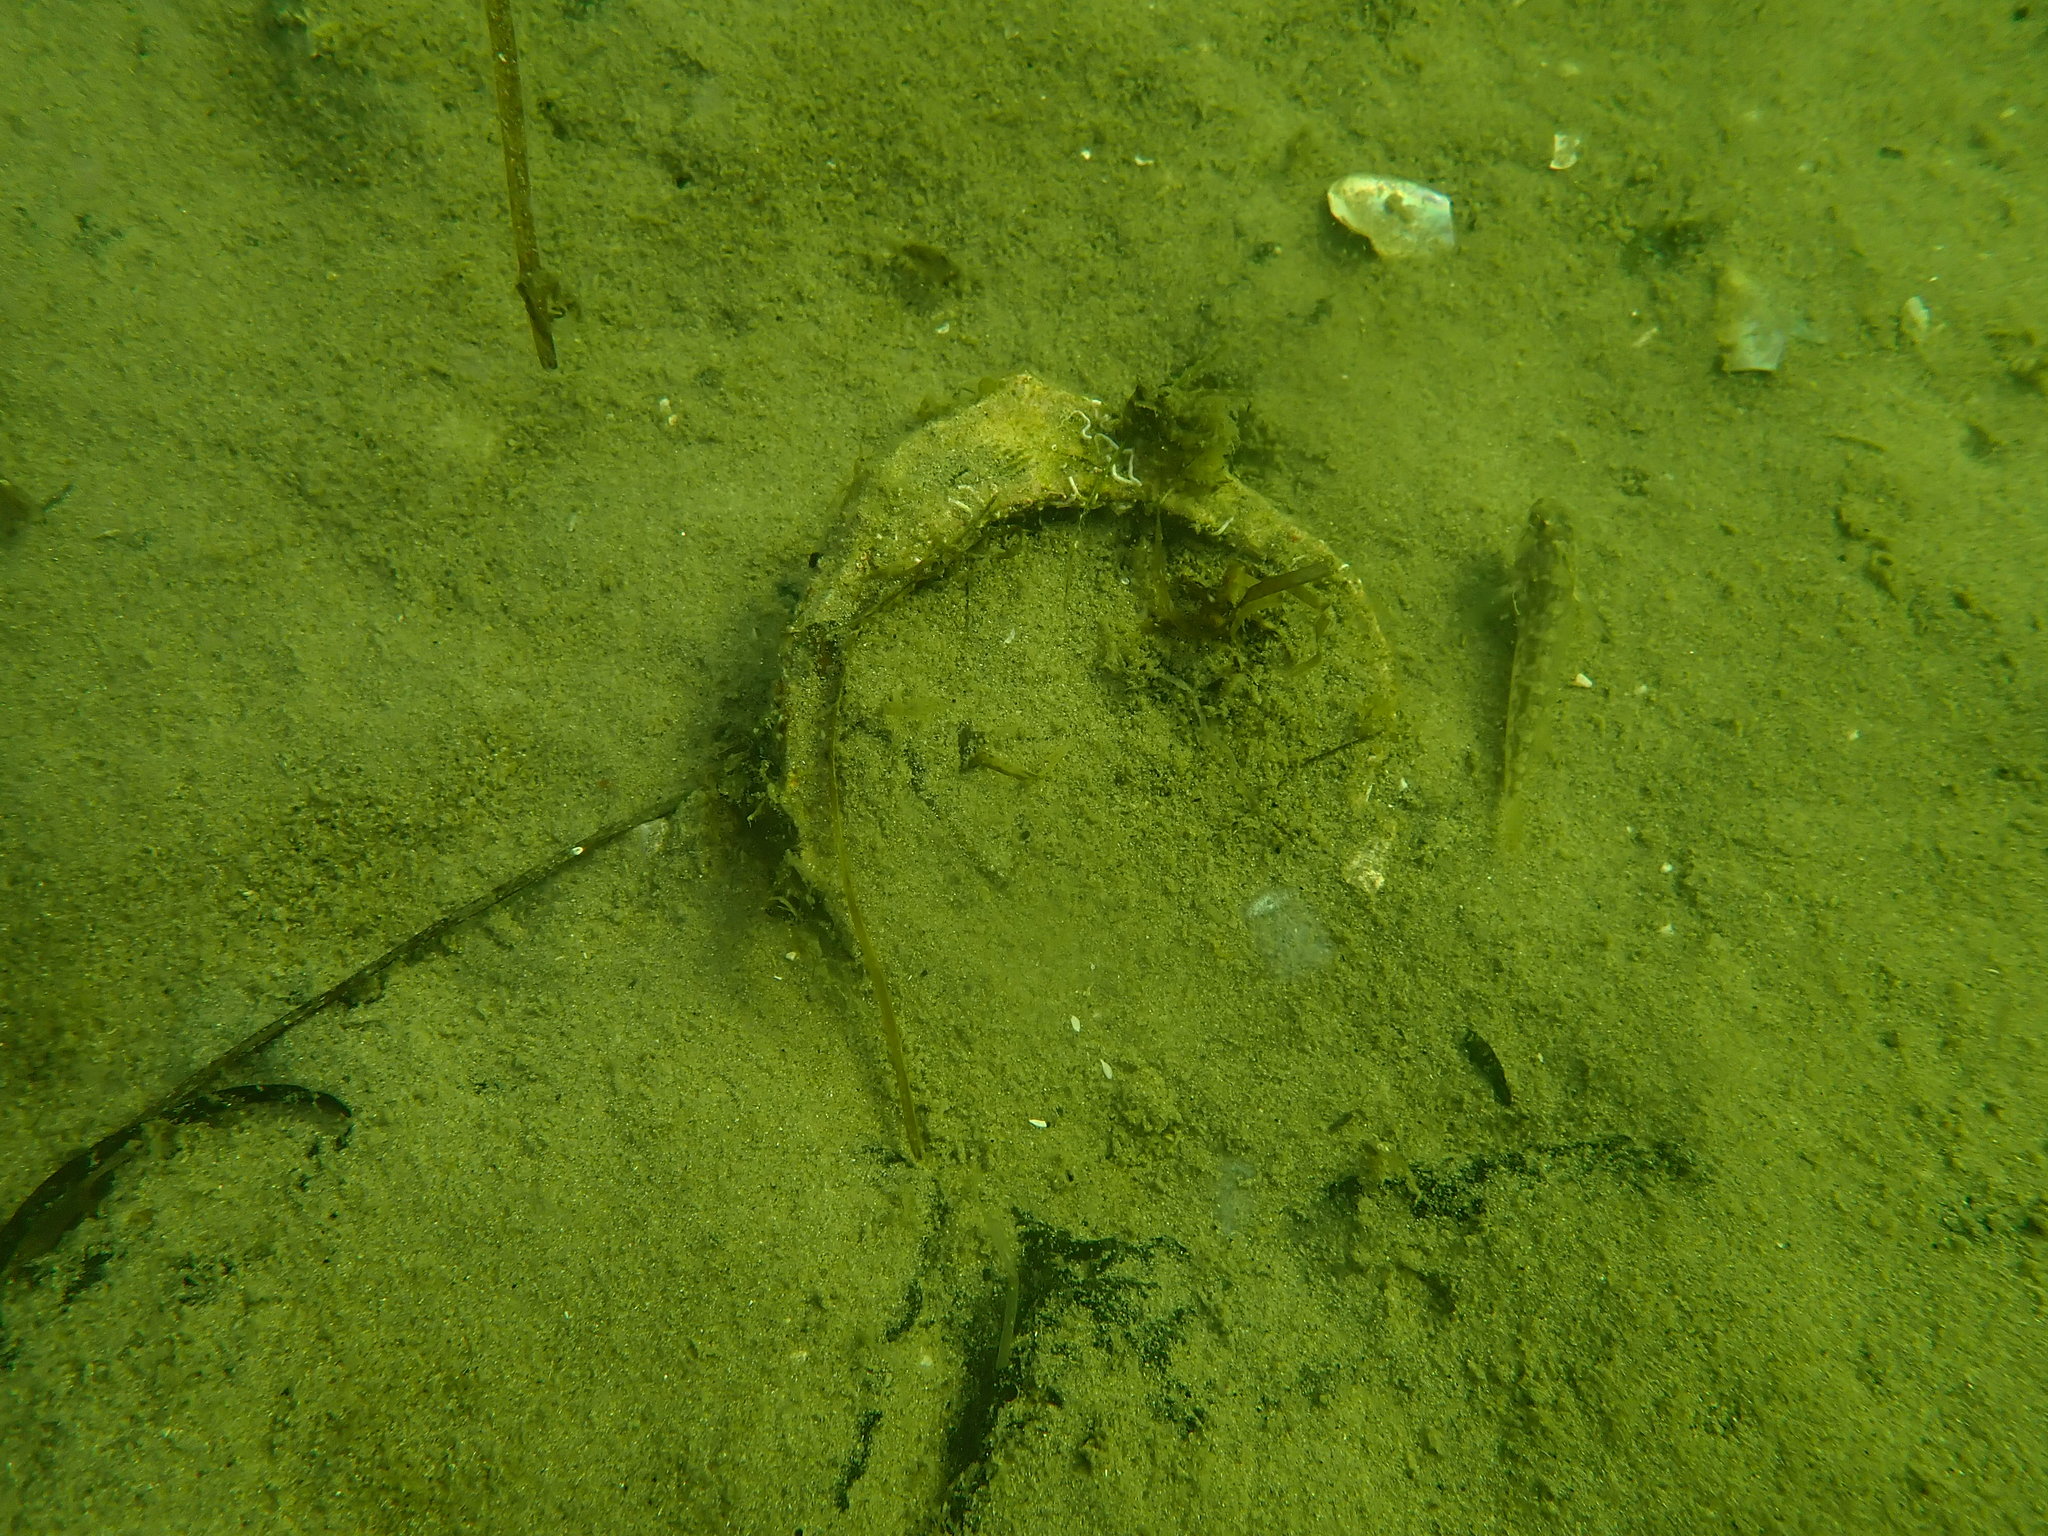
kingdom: Animalia
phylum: Mollusca
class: Bivalvia
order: Arcida
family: Glycymerididae
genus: Tucetona
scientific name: Tucetona laticostata
